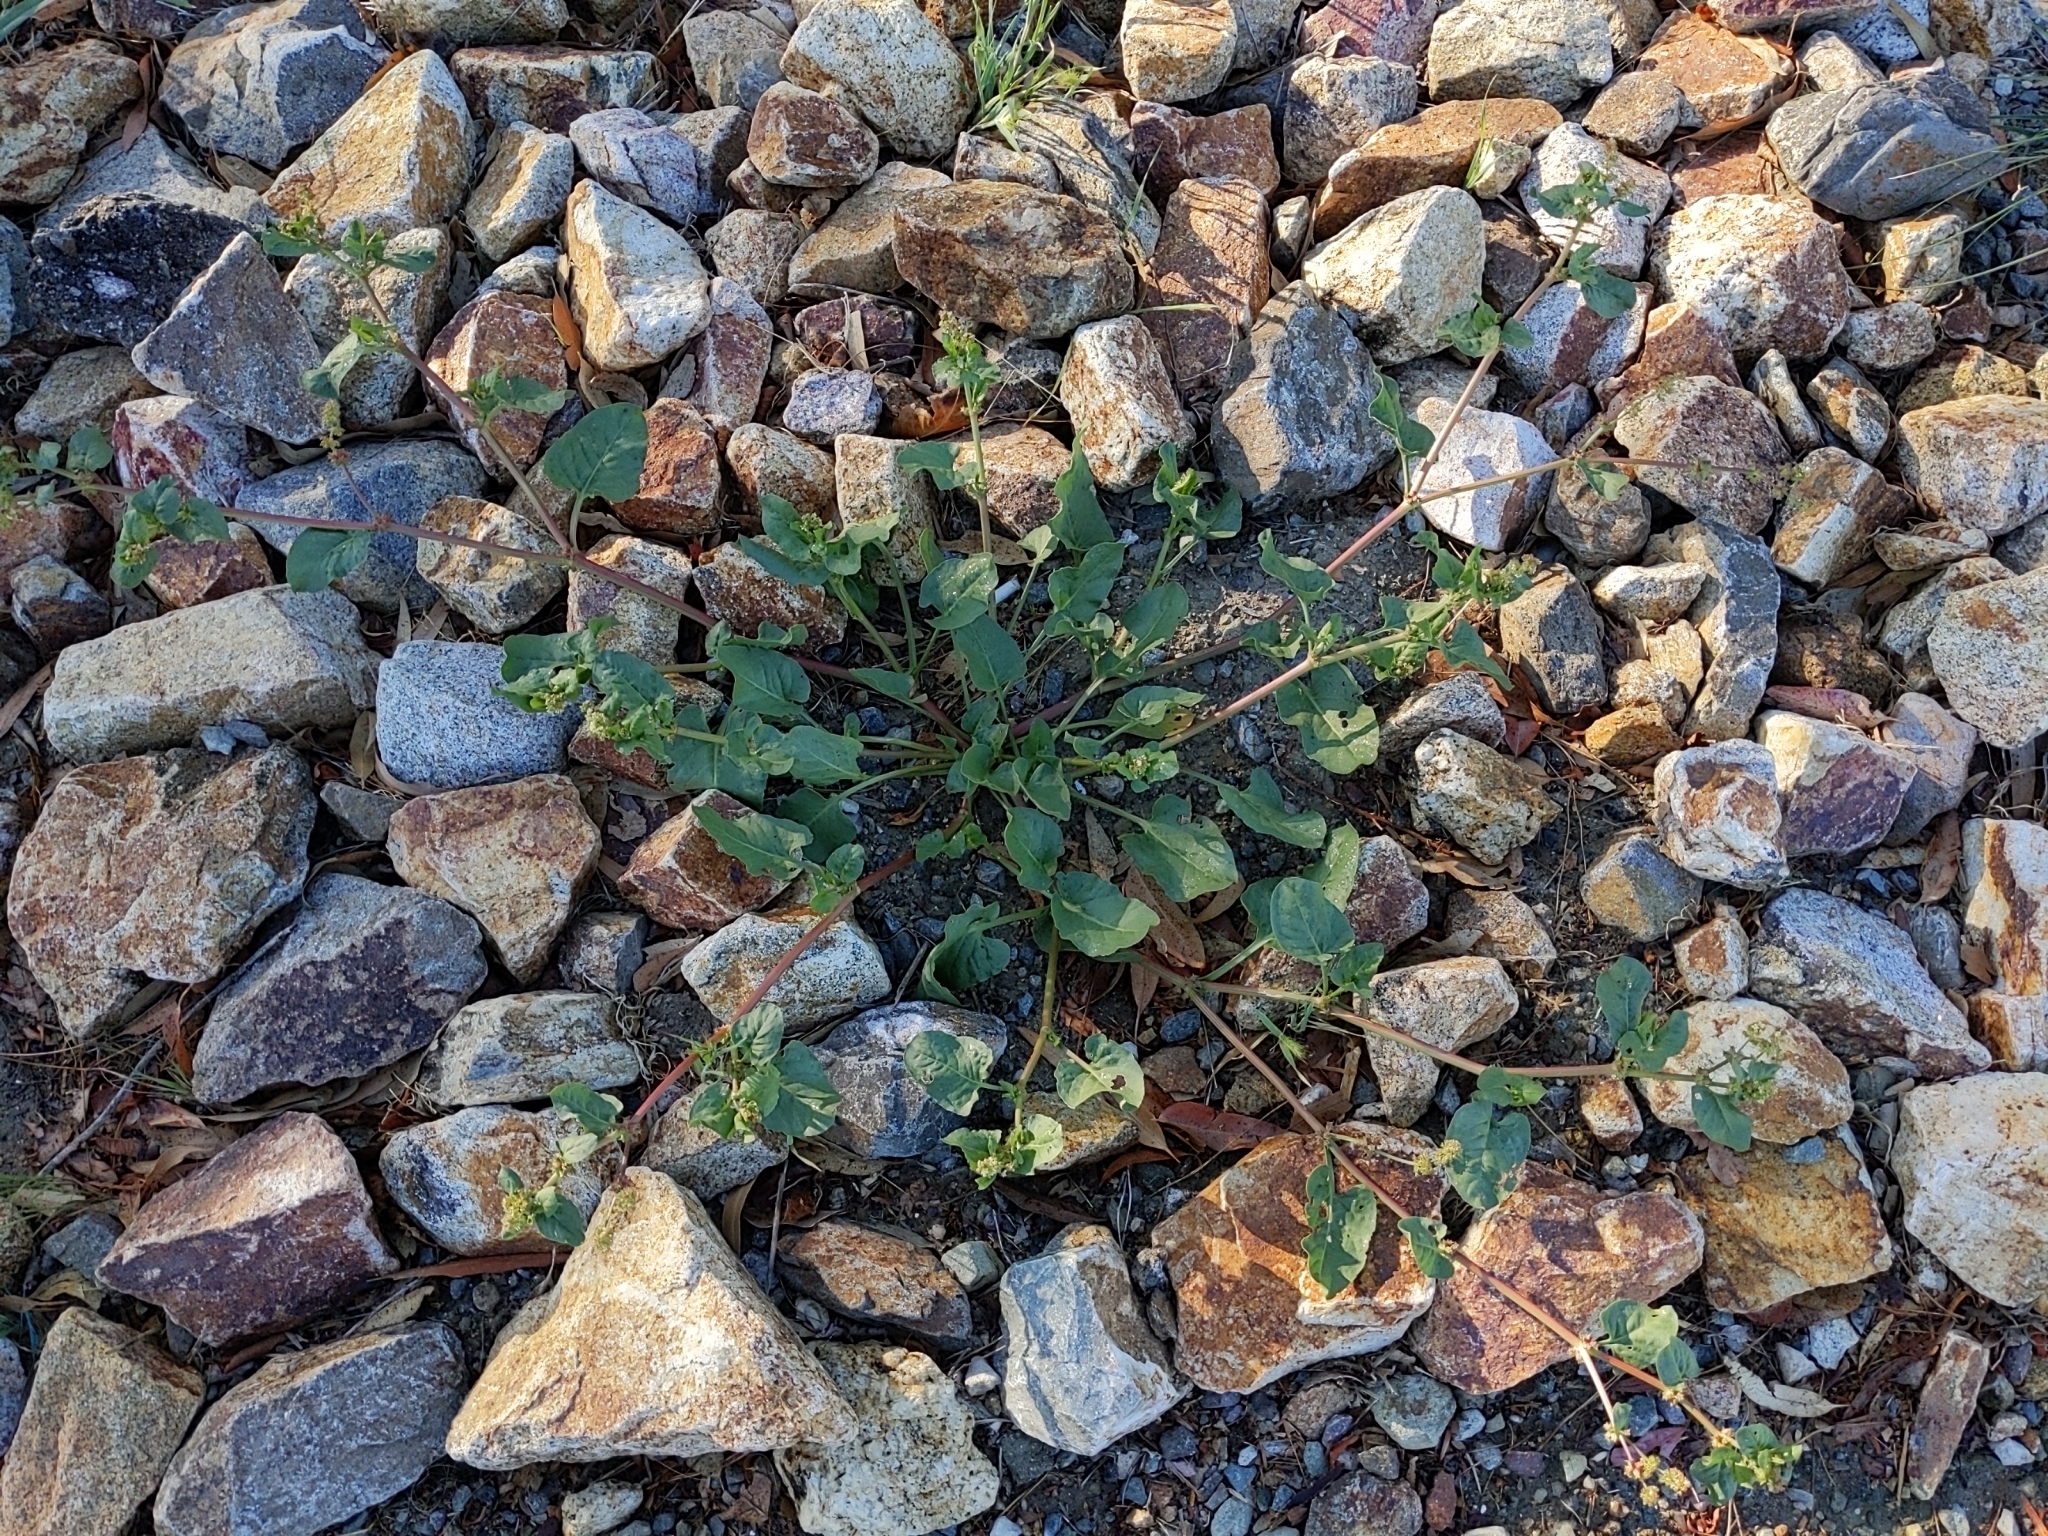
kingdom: Plantae
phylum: Tracheophyta
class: Magnoliopsida
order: Caryophyllales
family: Polygonaceae
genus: Rumex
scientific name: Rumex spinosus
